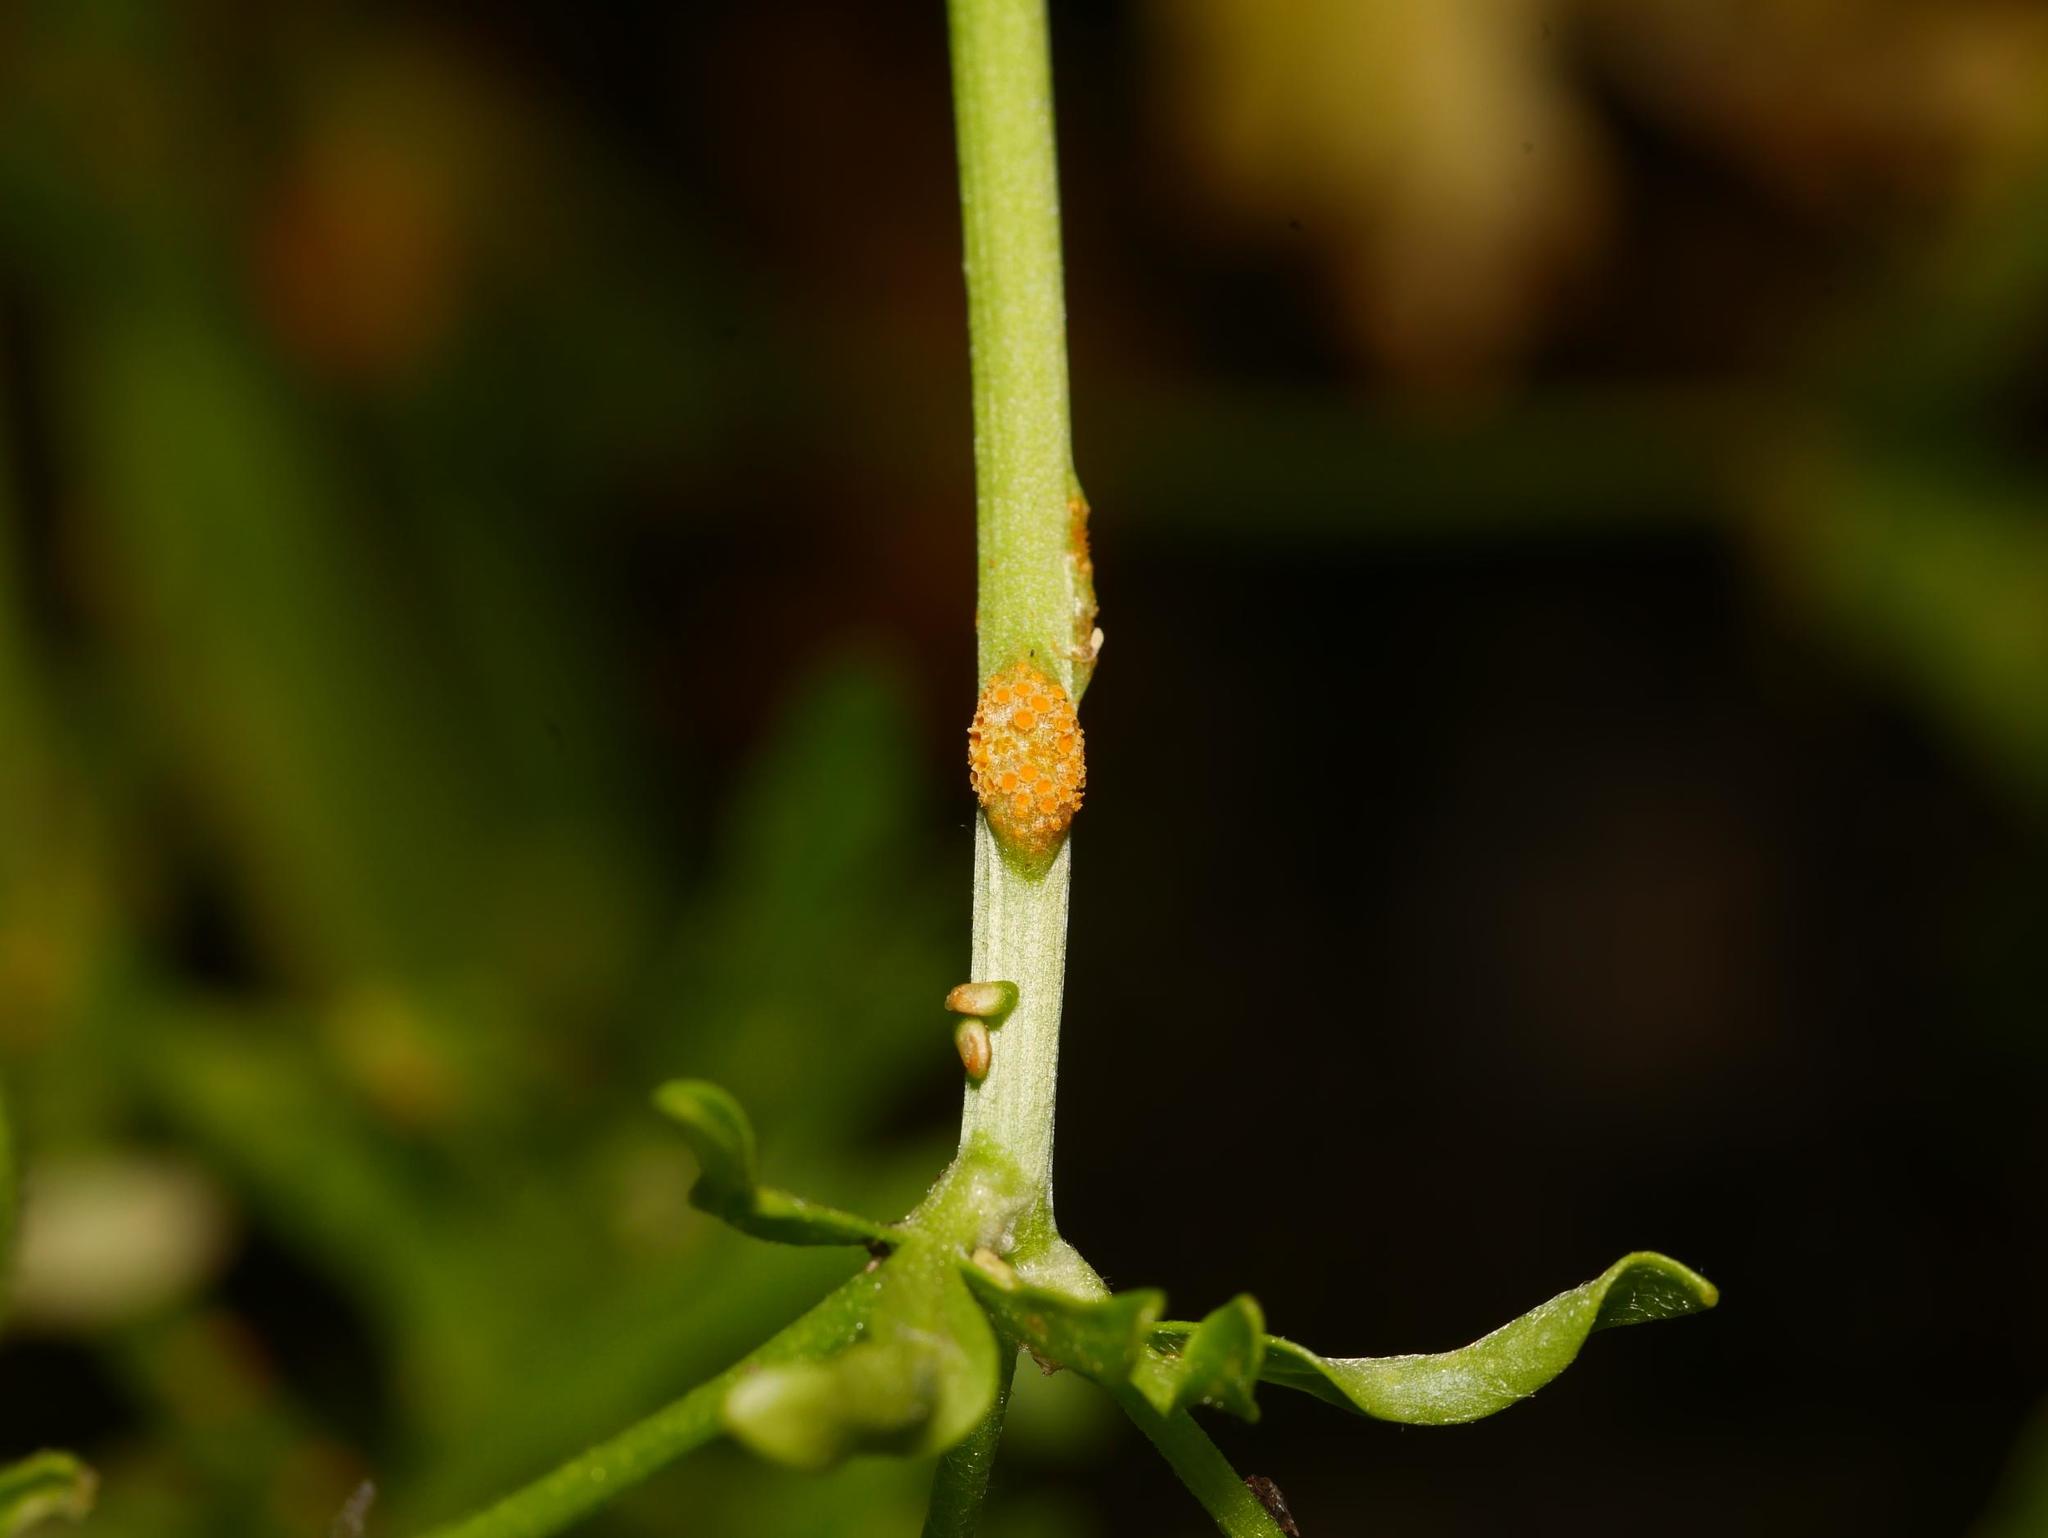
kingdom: Fungi
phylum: Basidiomycota
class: Pucciniomycetes
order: Pucciniales
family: Pucciniaceae
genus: Aecidium
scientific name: Aecidium ranunculi-acris
